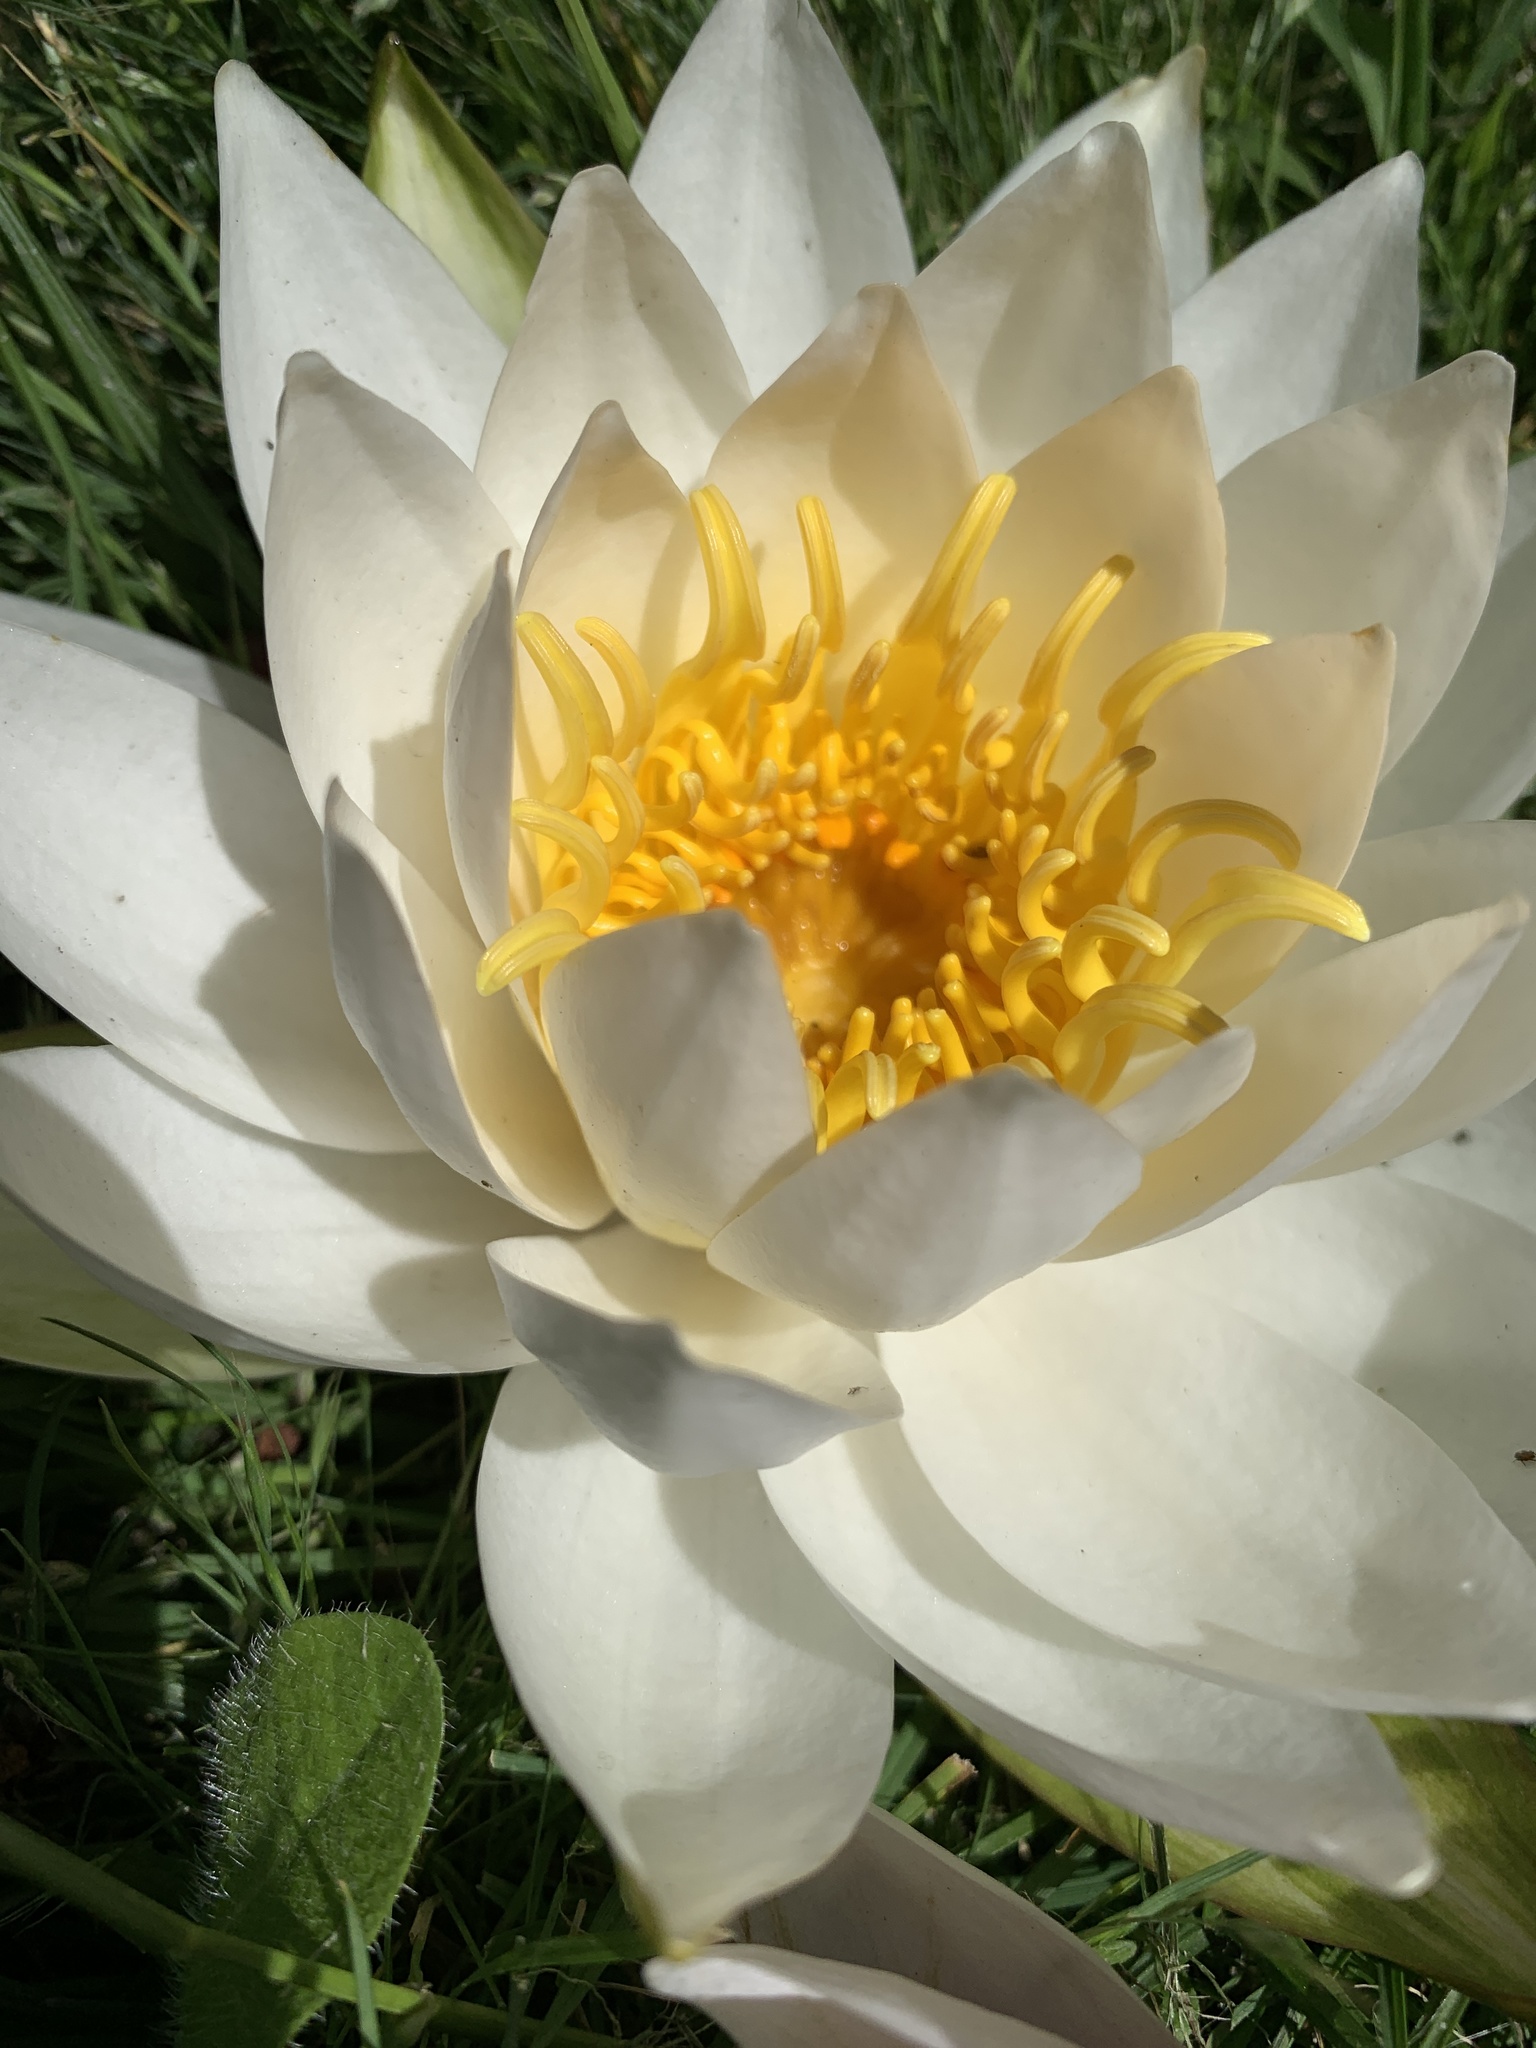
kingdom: Plantae
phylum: Tracheophyta
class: Magnoliopsida
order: Nymphaeales
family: Nymphaeaceae
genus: Nymphaea
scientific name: Nymphaea odorata
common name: Fragrant water-lily
